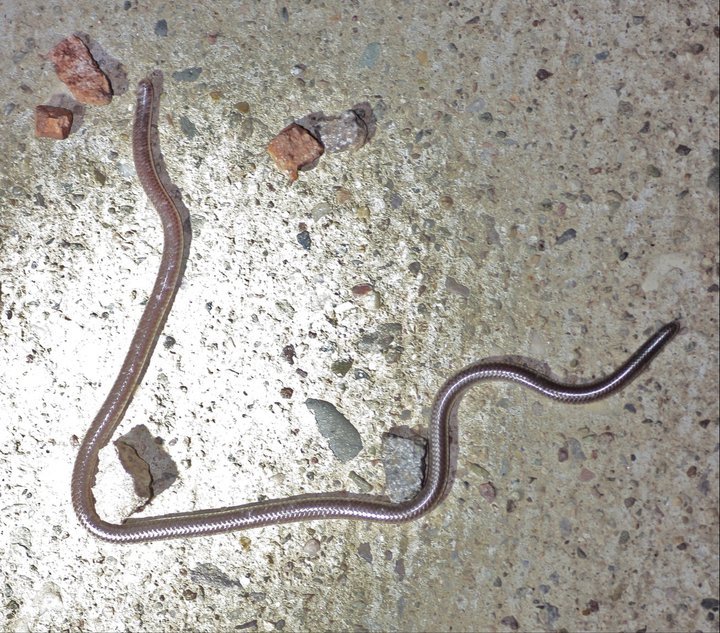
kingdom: Animalia
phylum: Chordata
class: Squamata
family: Leptotyphlopidae
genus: Rena
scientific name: Rena humilis
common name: Western threadsnake
